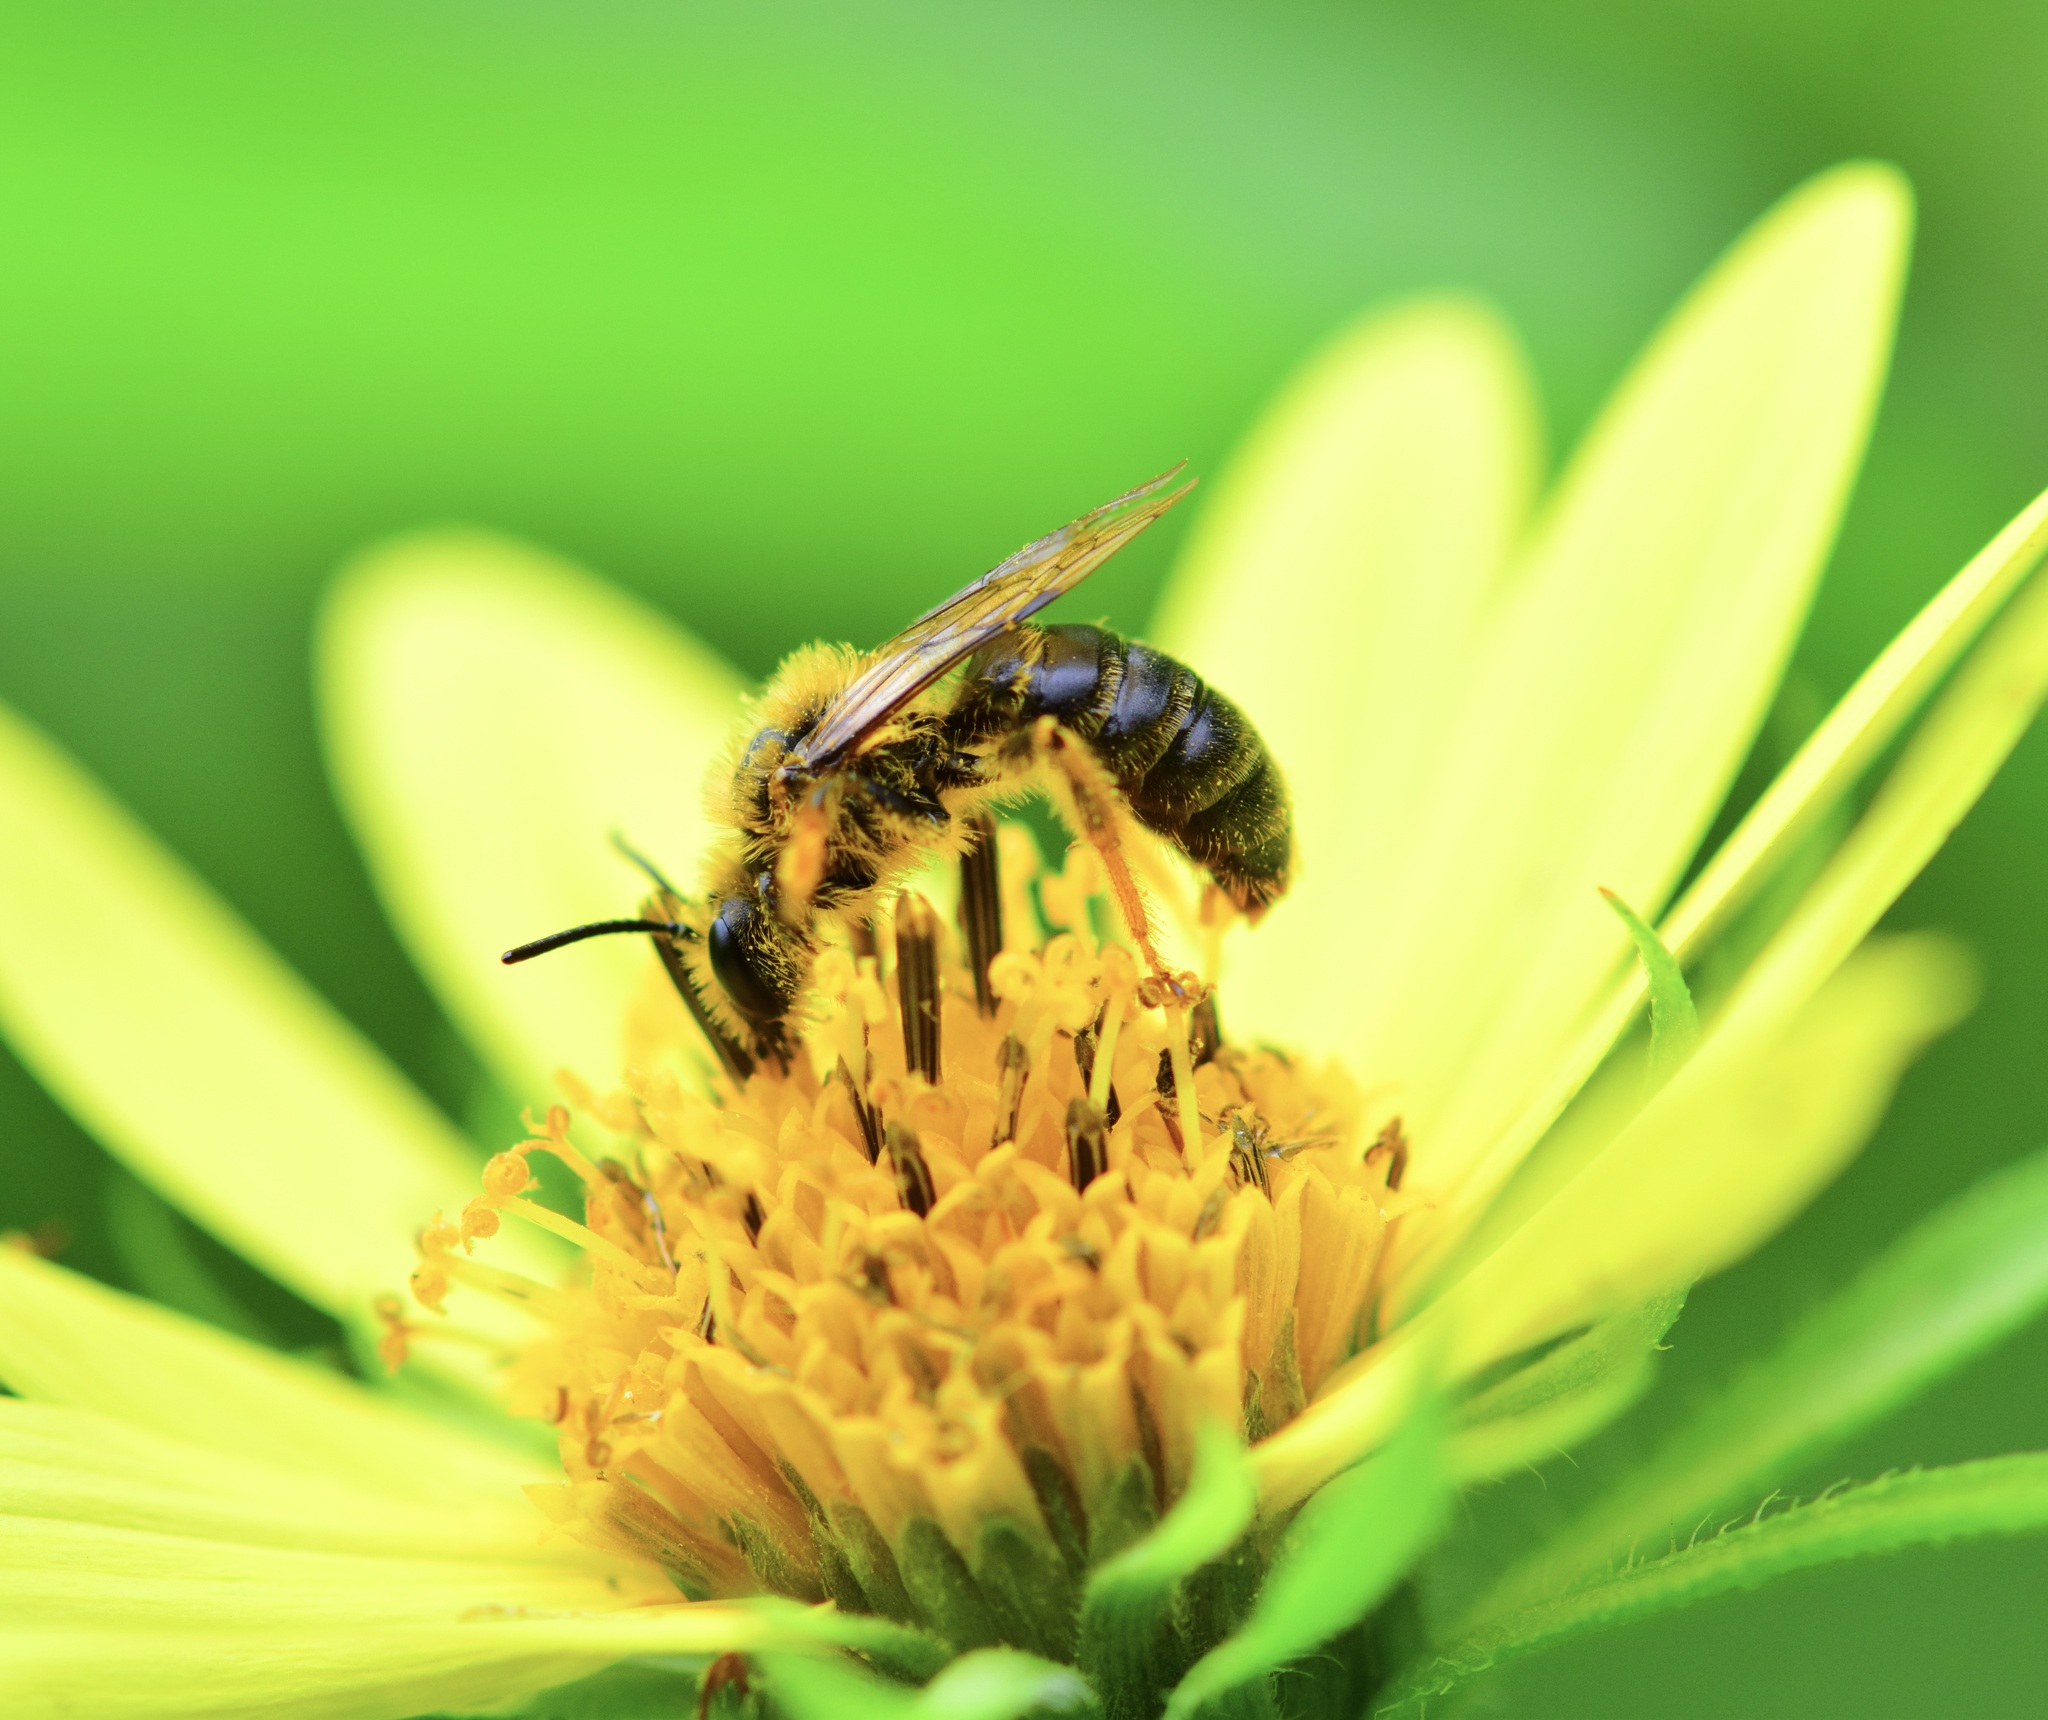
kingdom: Animalia
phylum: Arthropoda
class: Insecta
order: Hymenoptera
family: Andrenidae
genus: Andrena
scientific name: Andrena helianthi
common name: Sunflower mining bee
